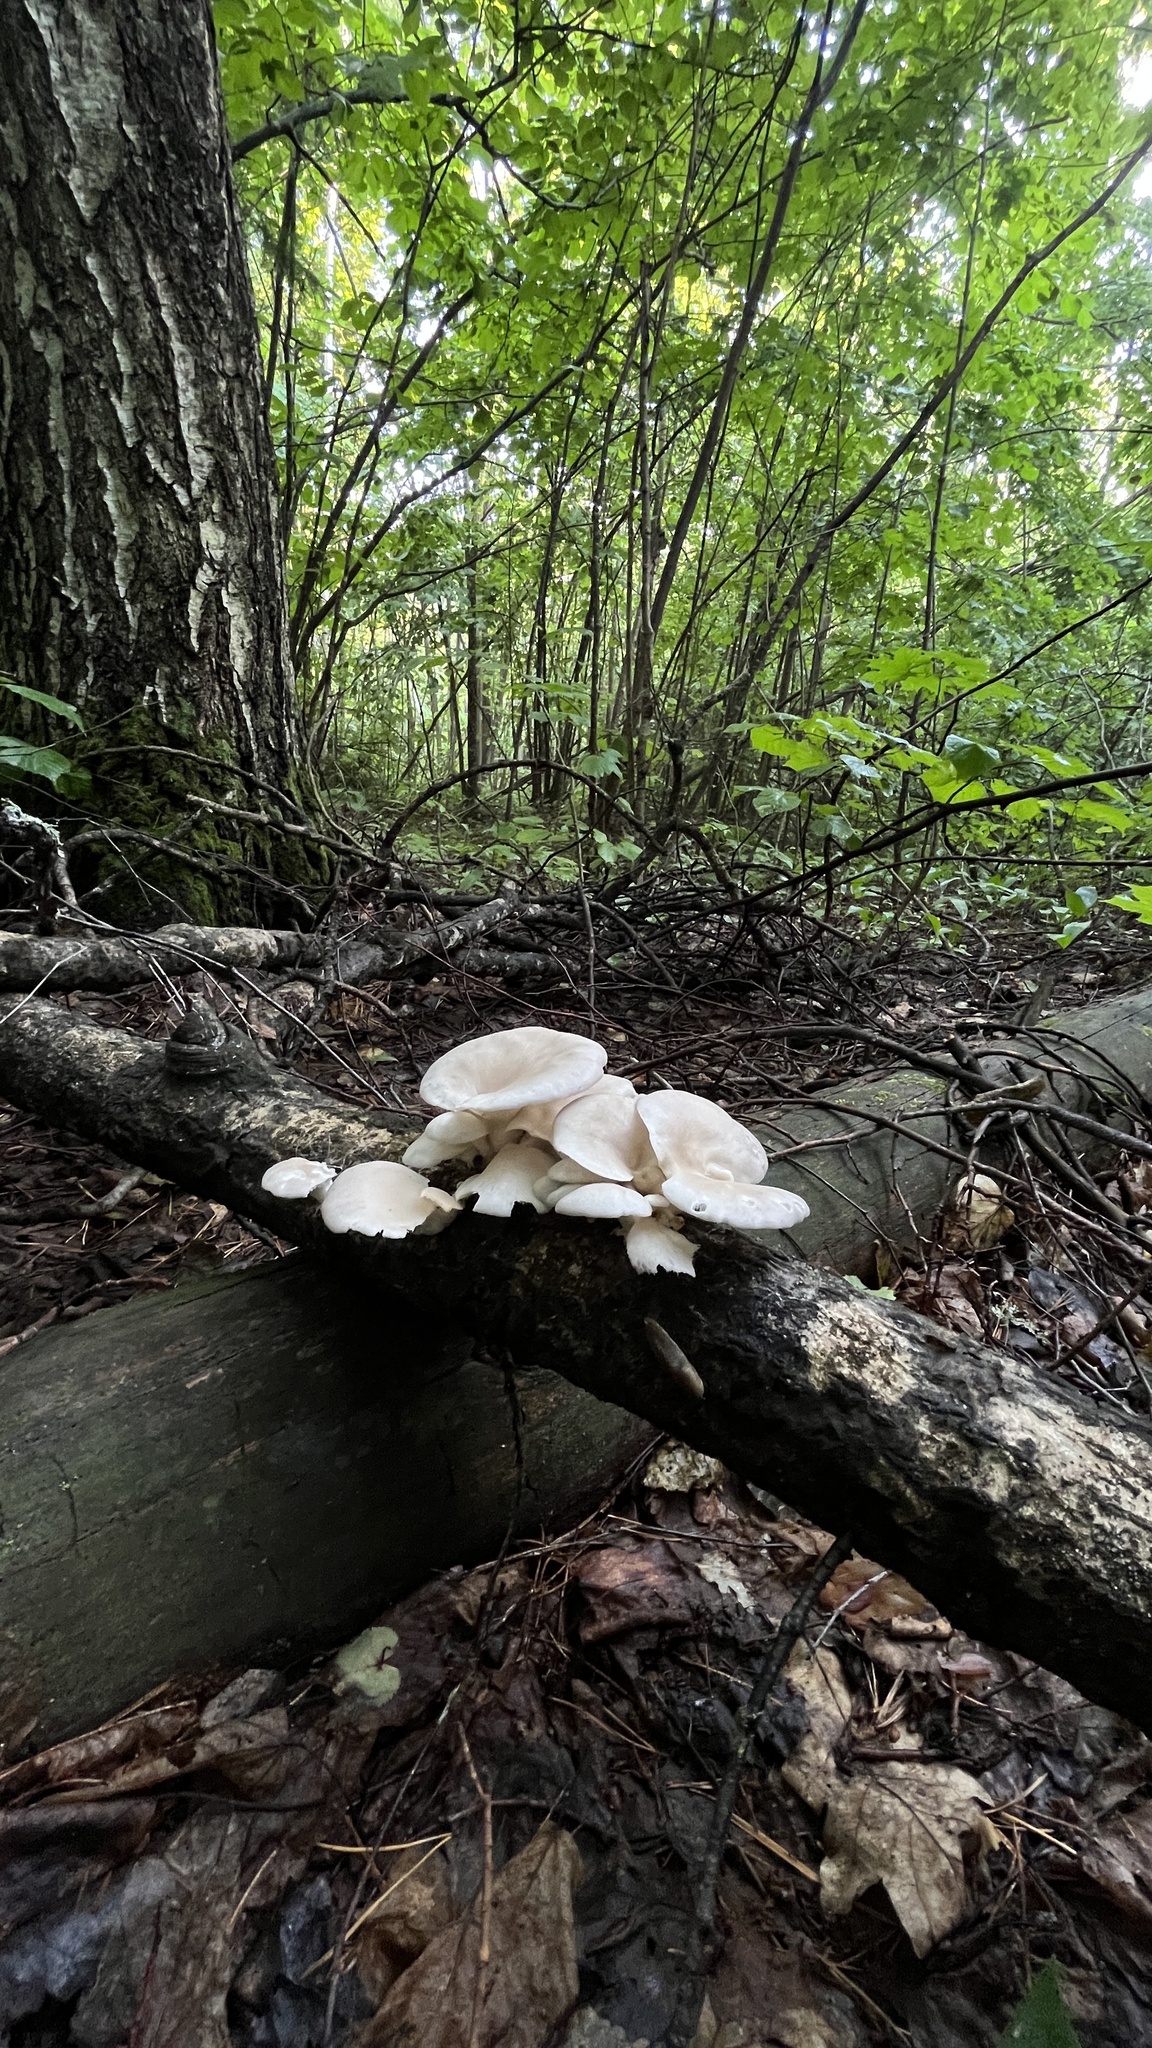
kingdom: Fungi
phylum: Basidiomycota
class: Agaricomycetes
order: Agaricales
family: Pleurotaceae
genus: Pleurotus
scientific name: Pleurotus pulmonarius
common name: Pale oyster
